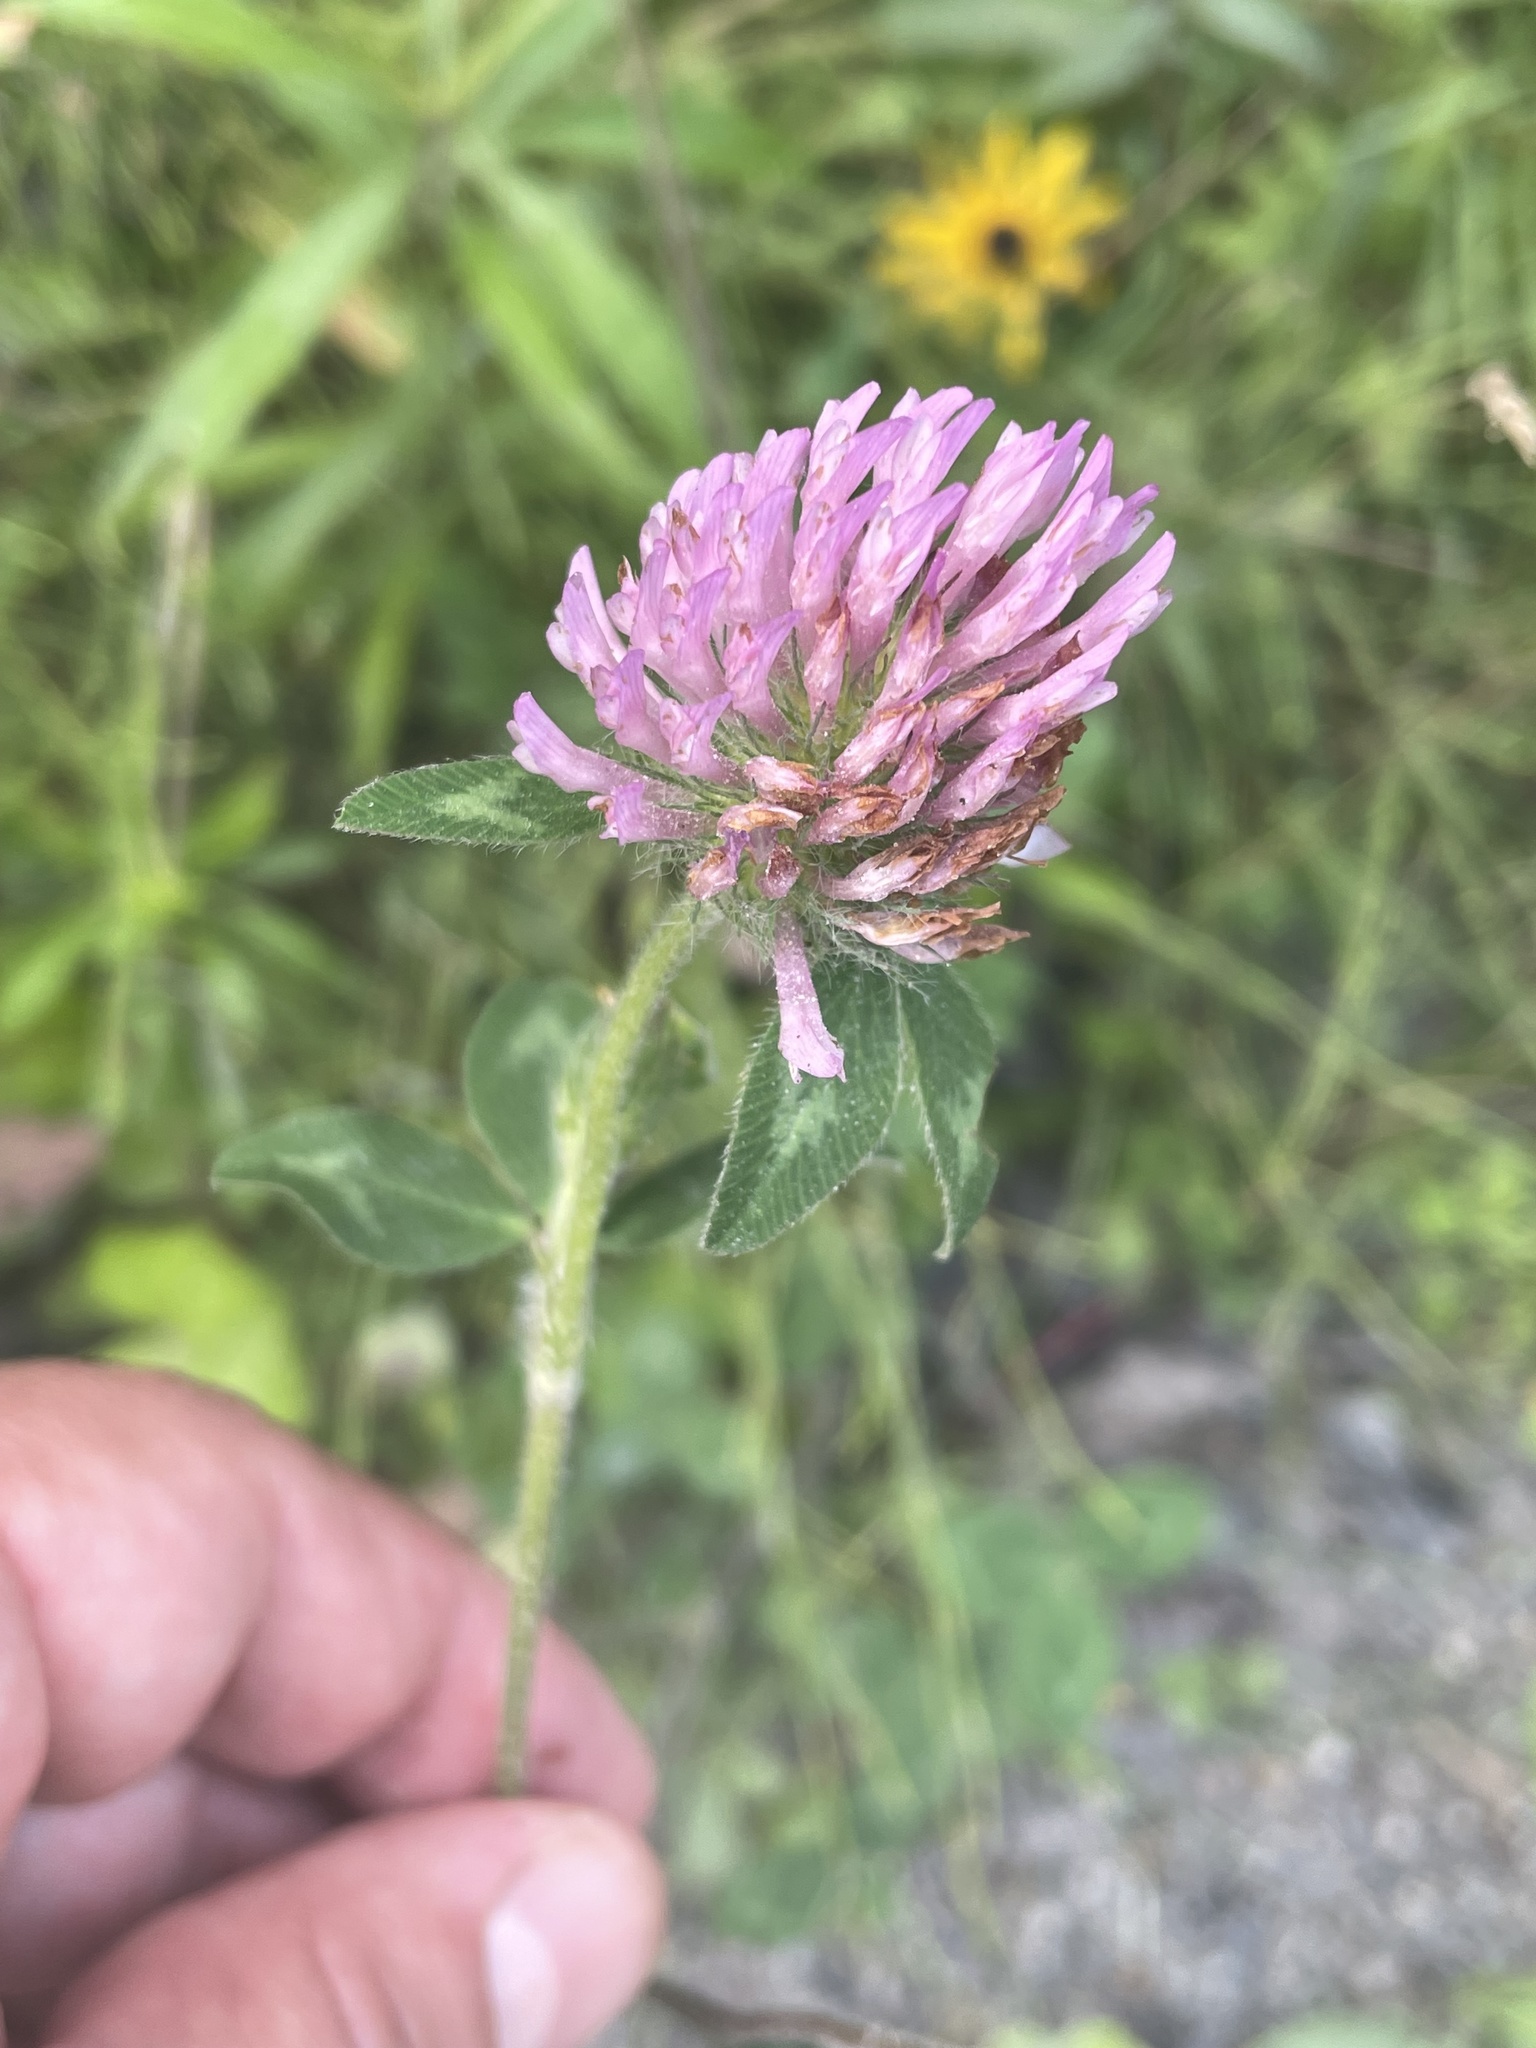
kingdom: Plantae
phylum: Tracheophyta
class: Magnoliopsida
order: Fabales
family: Fabaceae
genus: Trifolium
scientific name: Trifolium pratense
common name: Red clover
